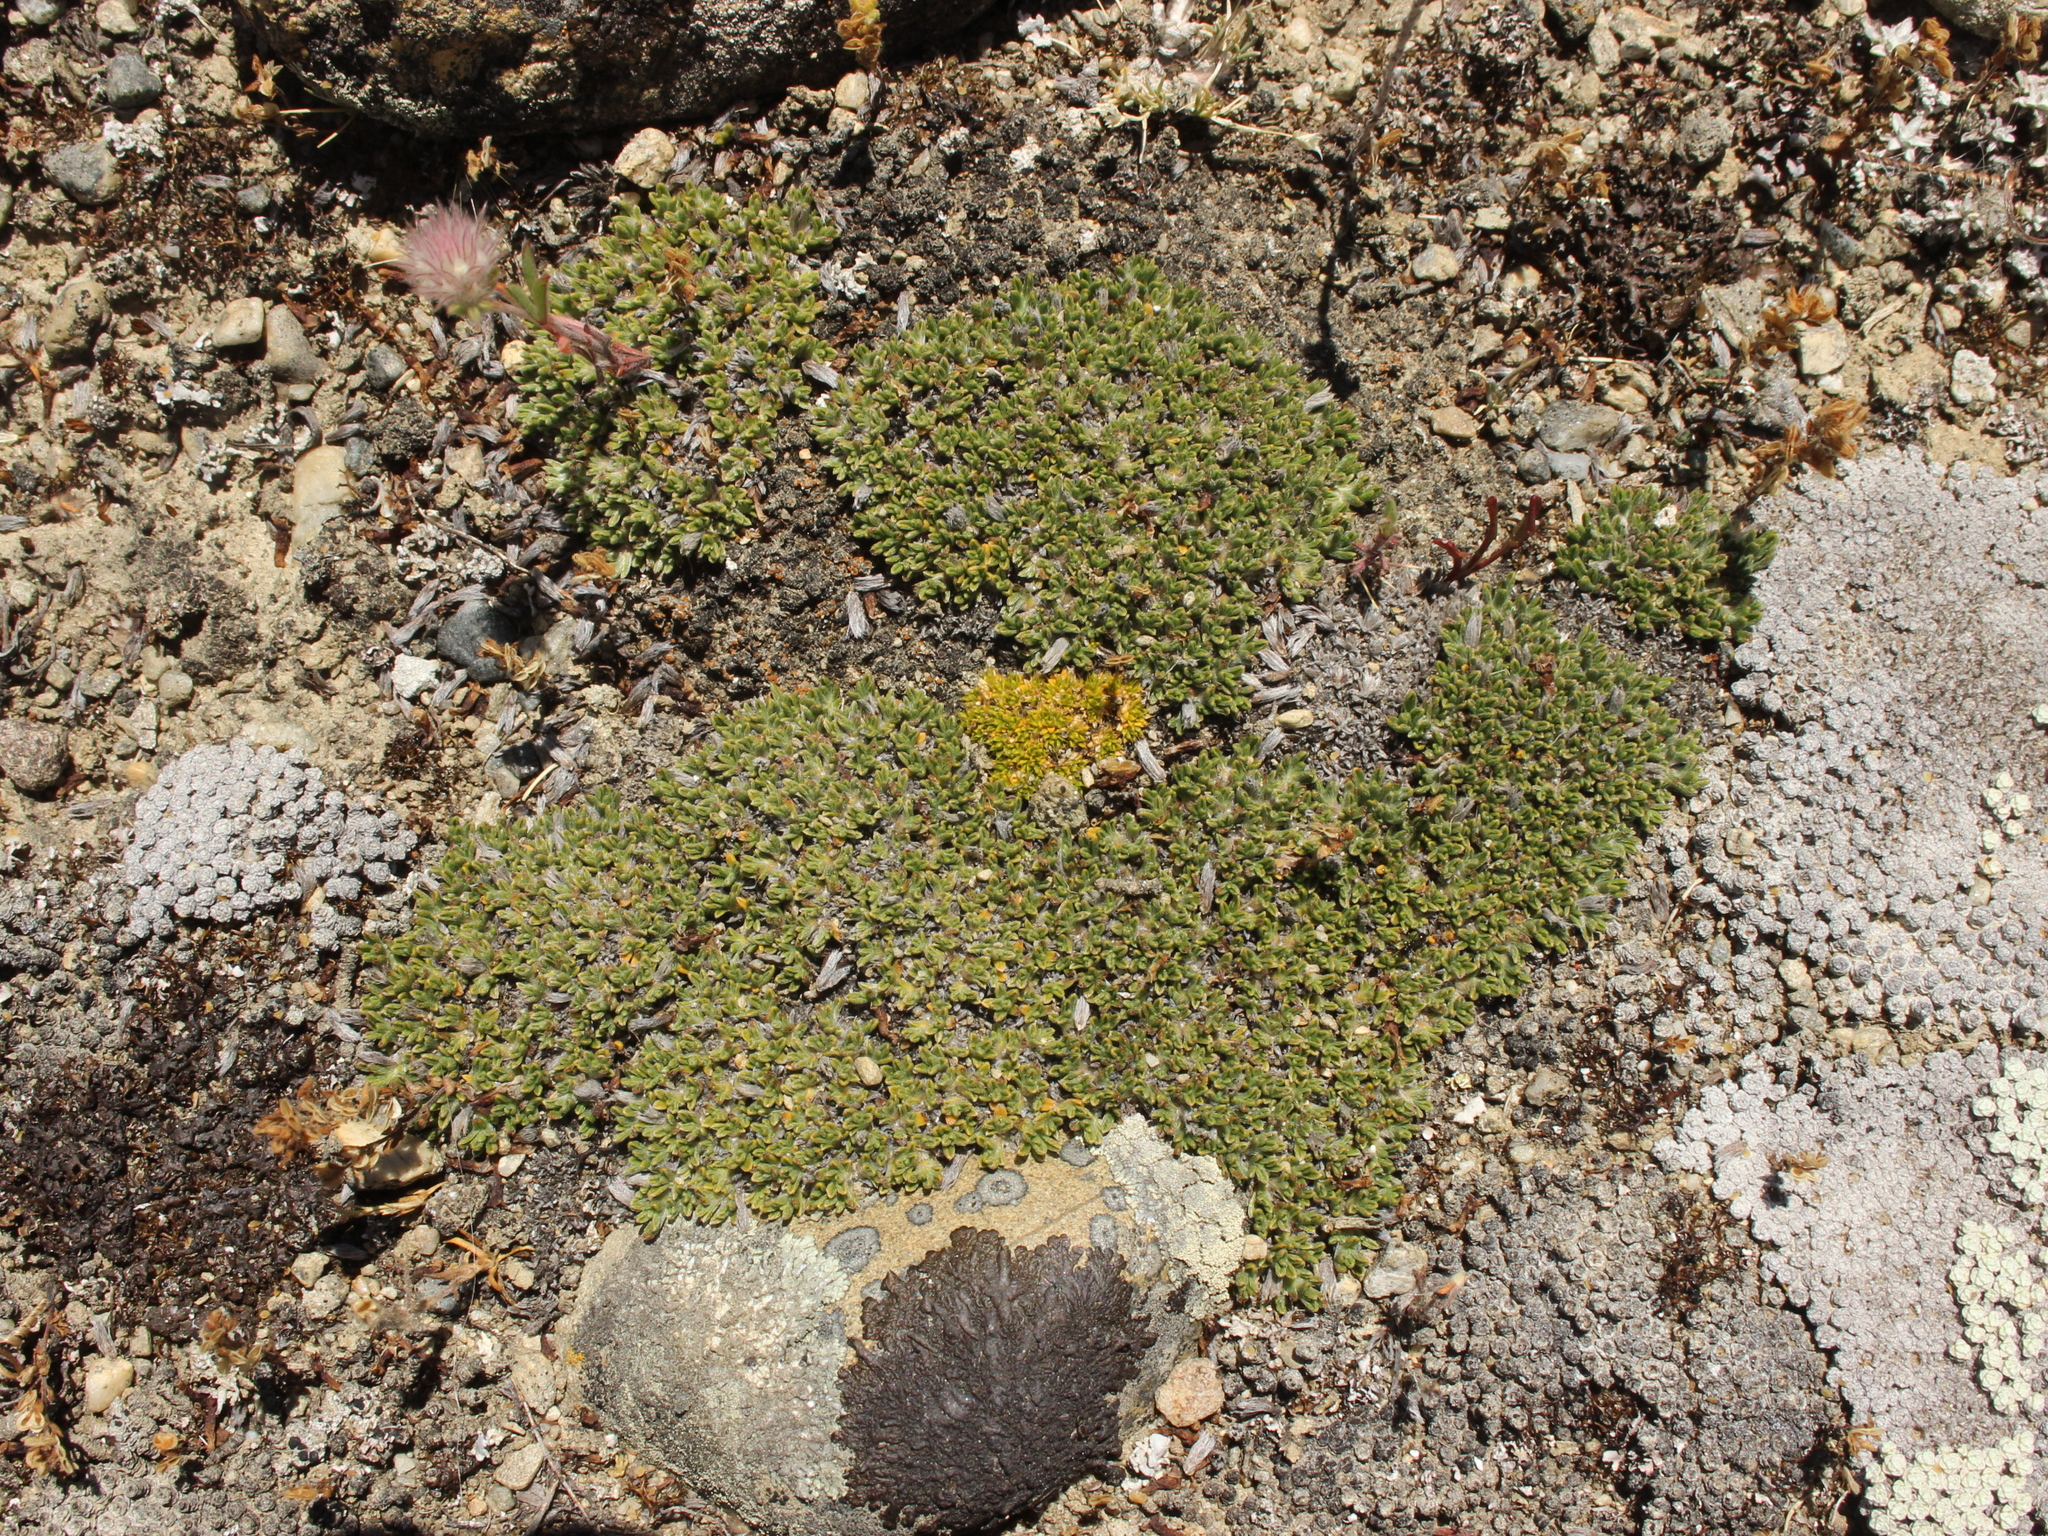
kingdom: Plantae
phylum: Tracheophyta
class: Magnoliopsida
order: Boraginales
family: Boraginaceae
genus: Myosotis
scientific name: Myosotis uniflora
